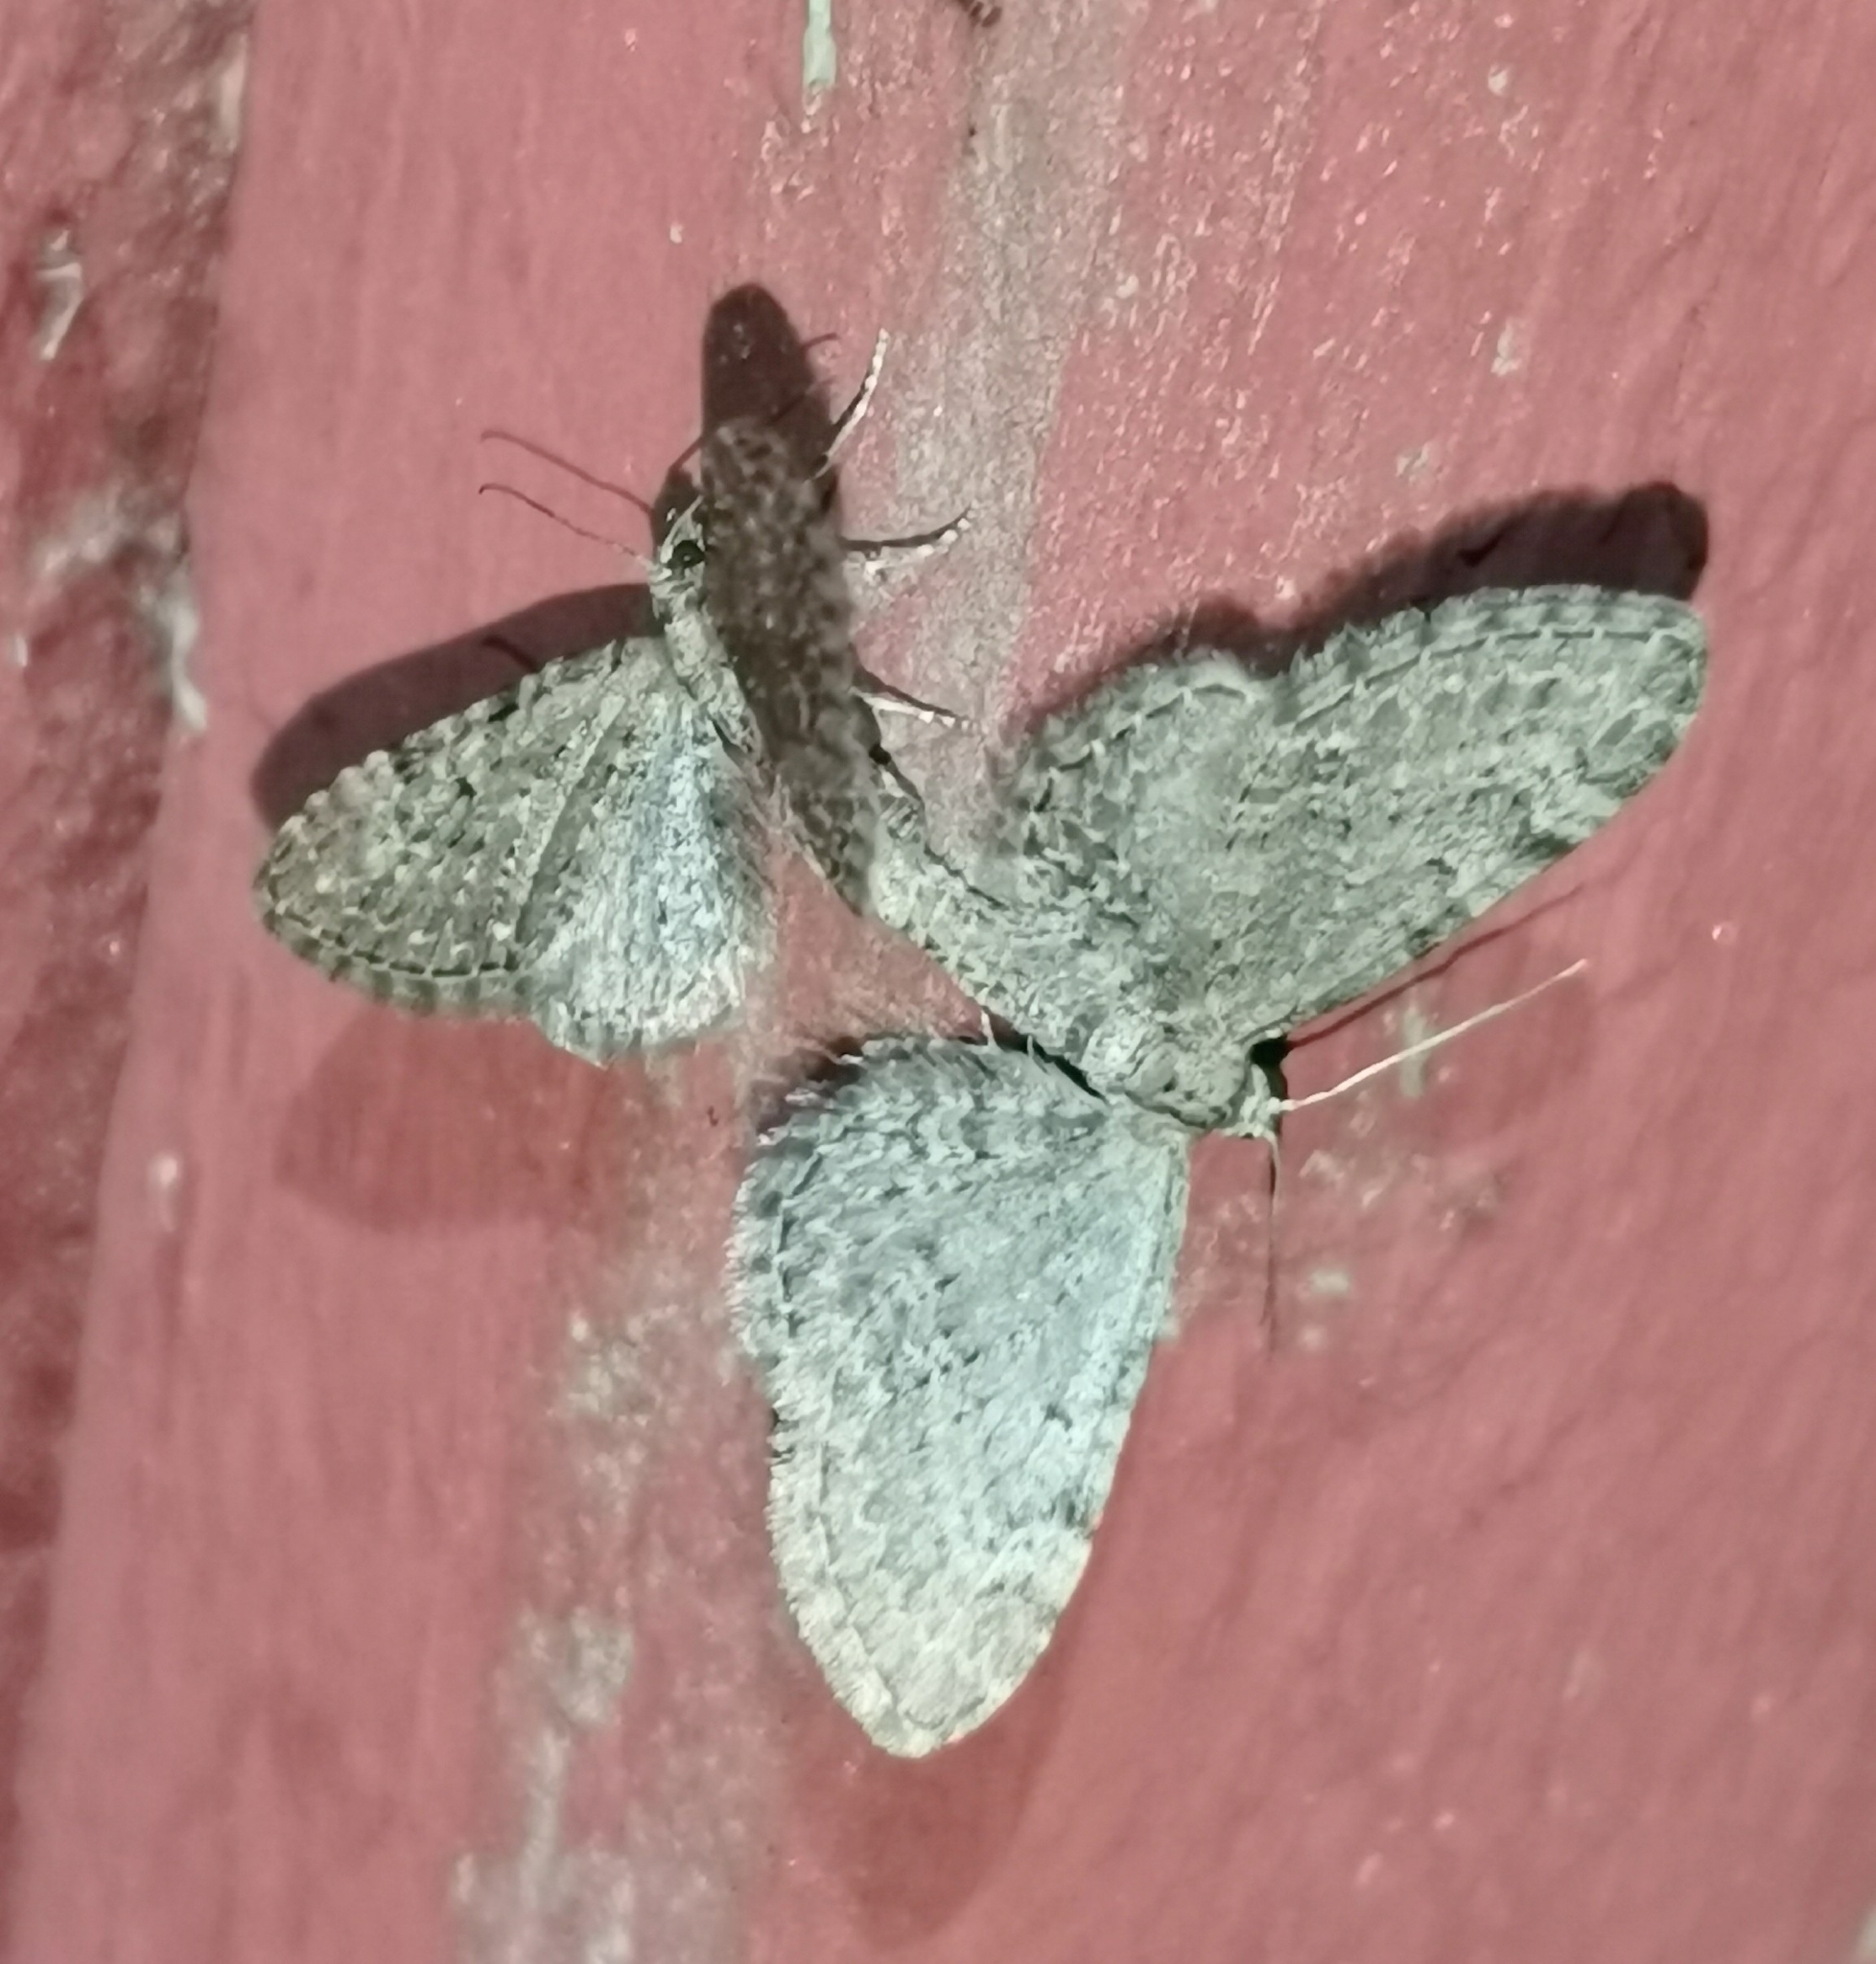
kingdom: Animalia
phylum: Arthropoda
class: Insecta
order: Lepidoptera
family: Geometridae
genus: Eupithecia
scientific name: Eupithecia vulgata
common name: Common pug
